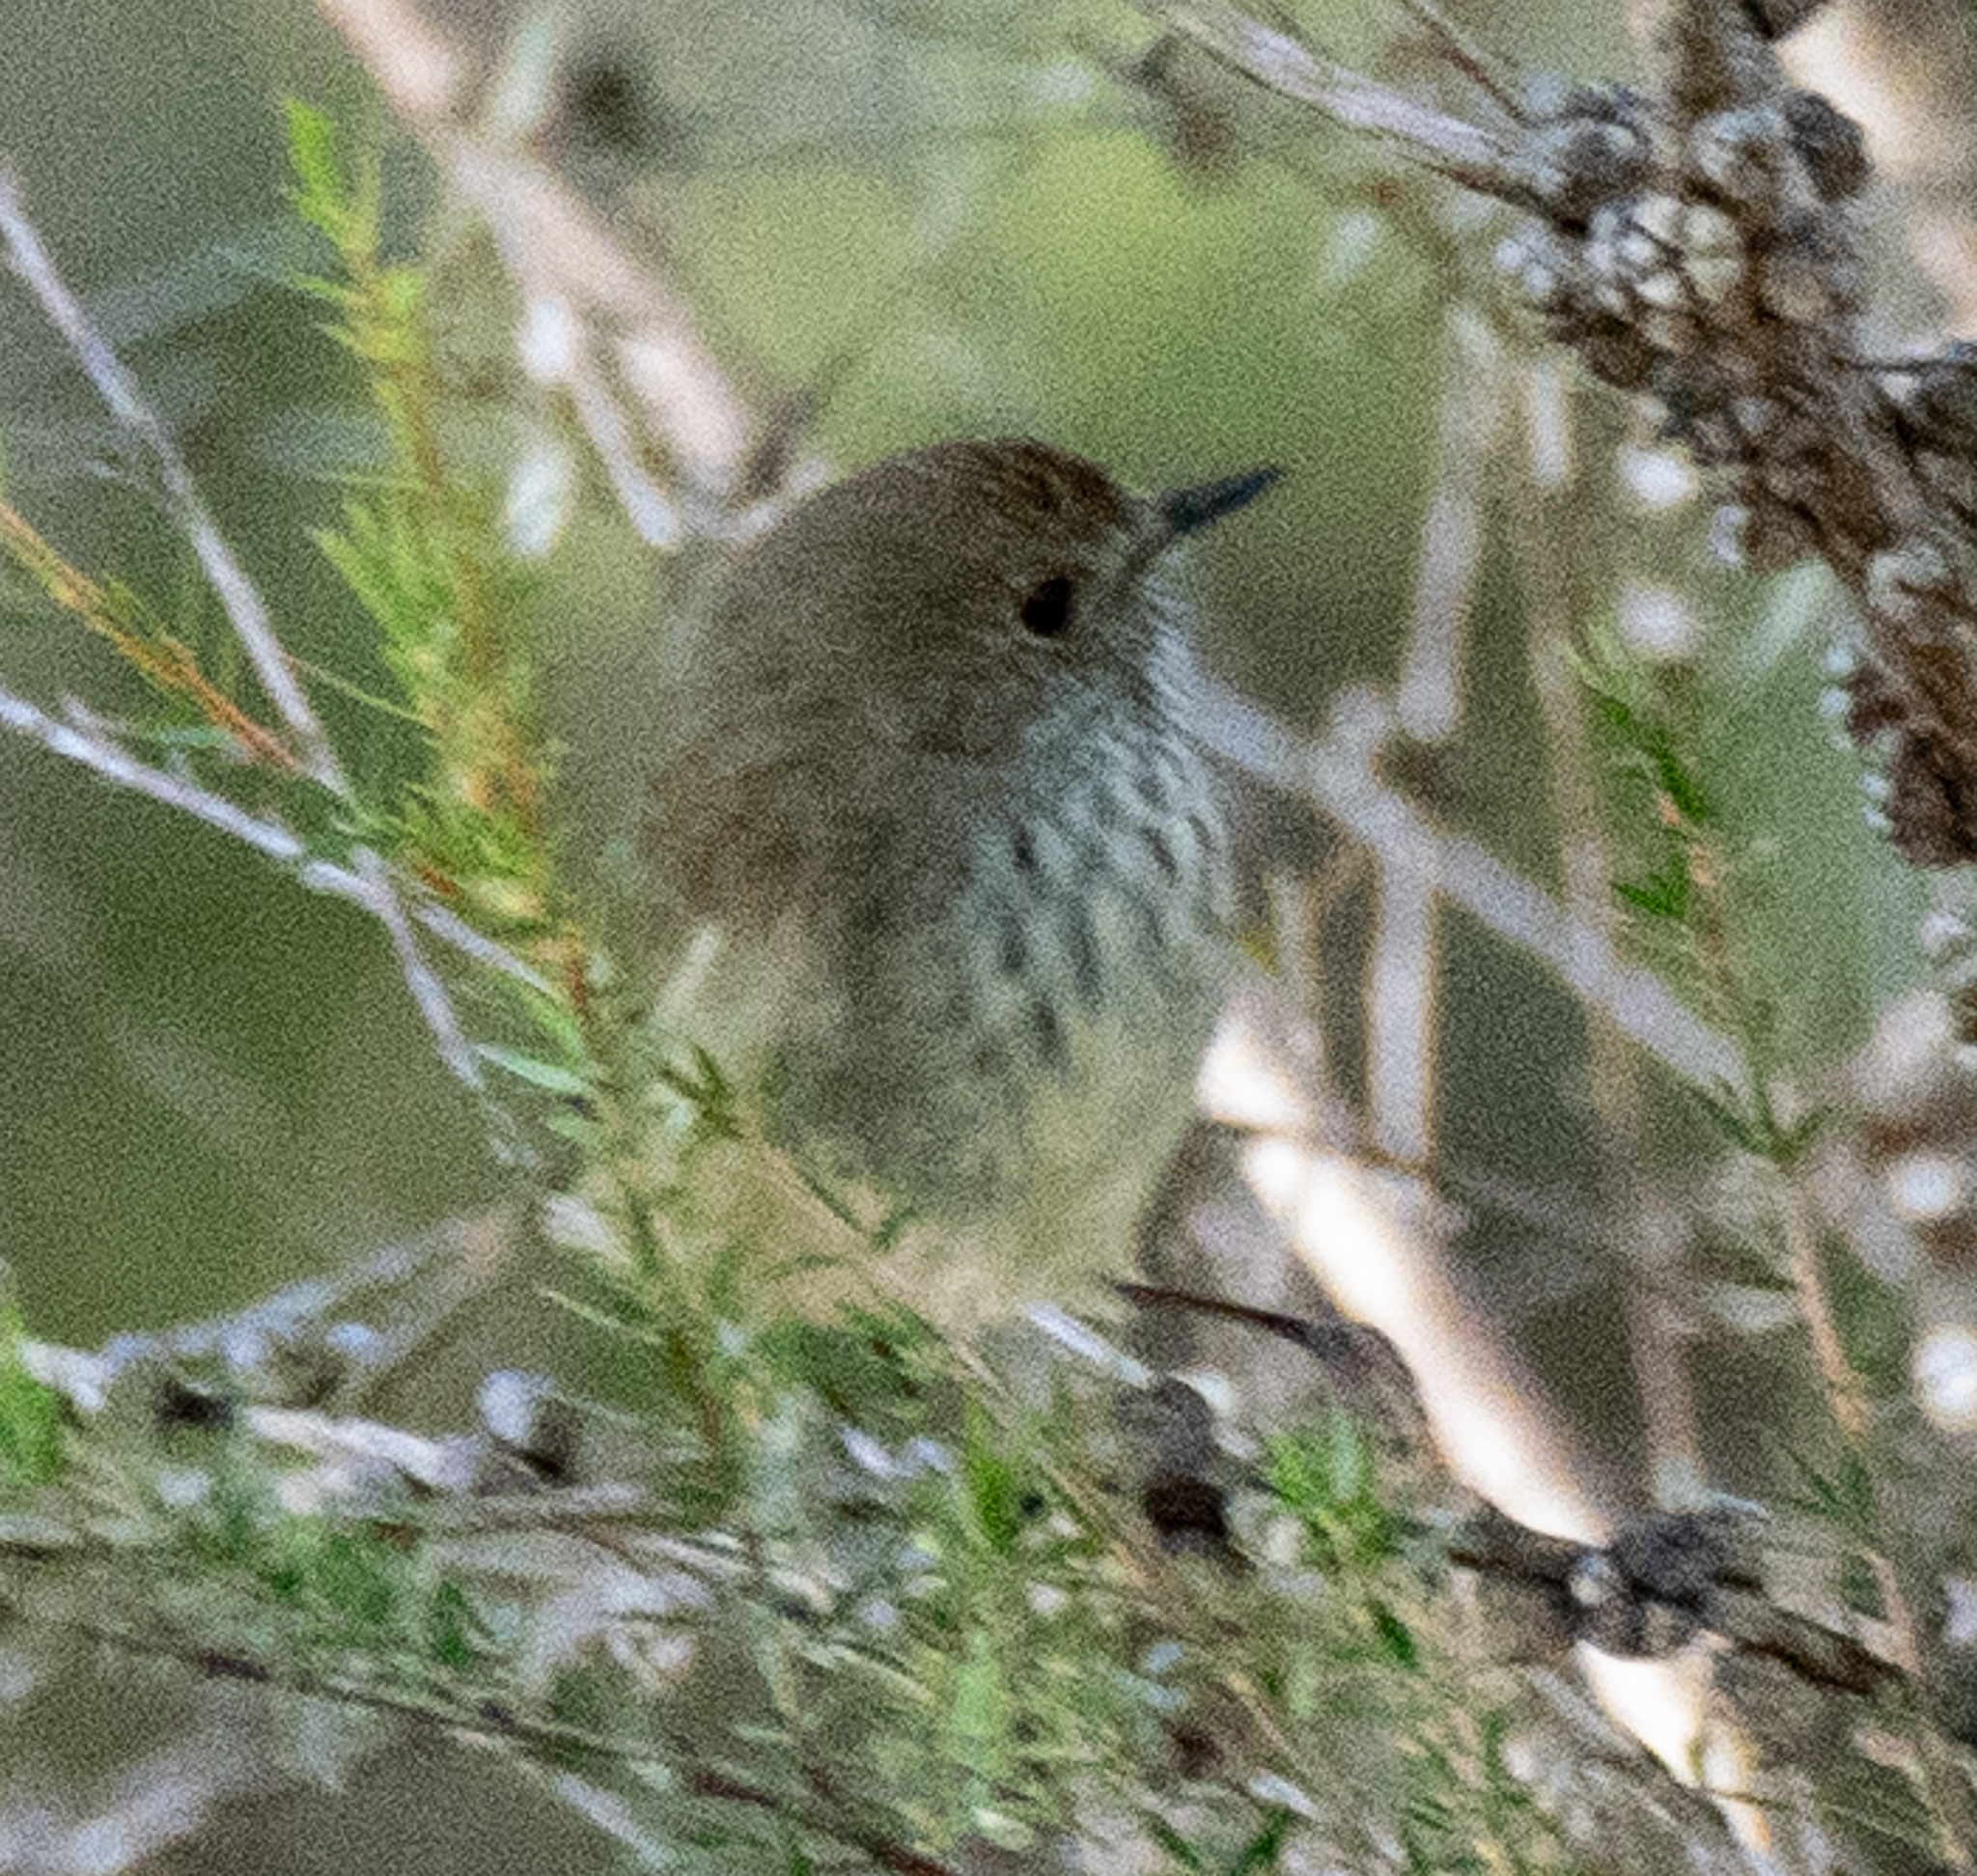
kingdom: Animalia
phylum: Chordata
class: Aves
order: Passeriformes
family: Acanthizidae
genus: Acanthiza
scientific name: Acanthiza pusilla
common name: Brown thornbill
